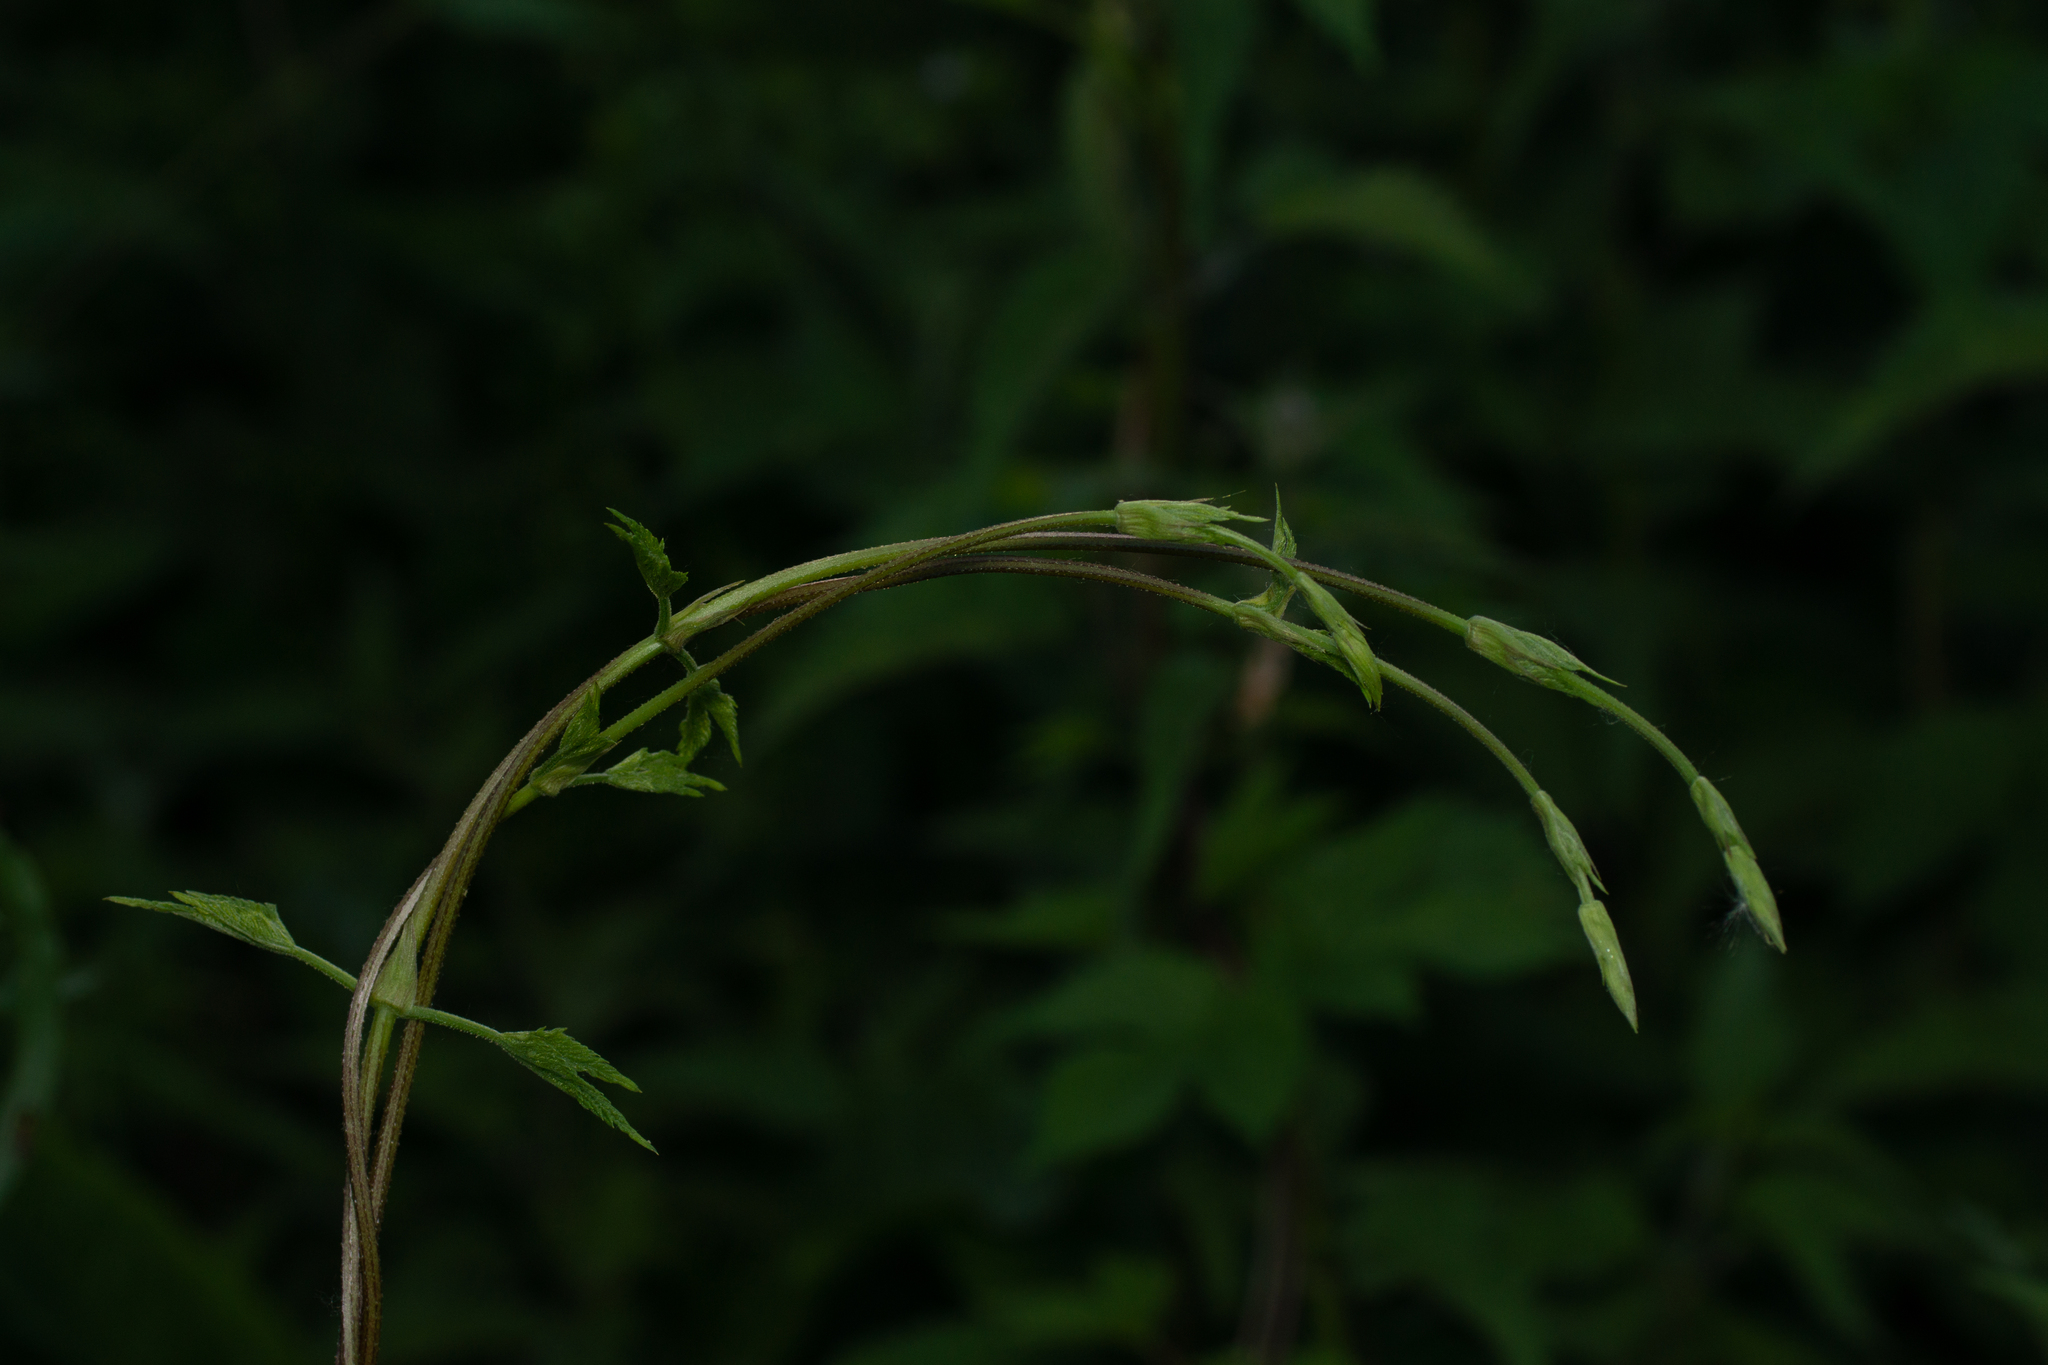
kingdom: Plantae
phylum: Tracheophyta
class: Magnoliopsida
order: Rosales
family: Cannabaceae
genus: Humulus
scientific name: Humulus lupulus
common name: Hop
